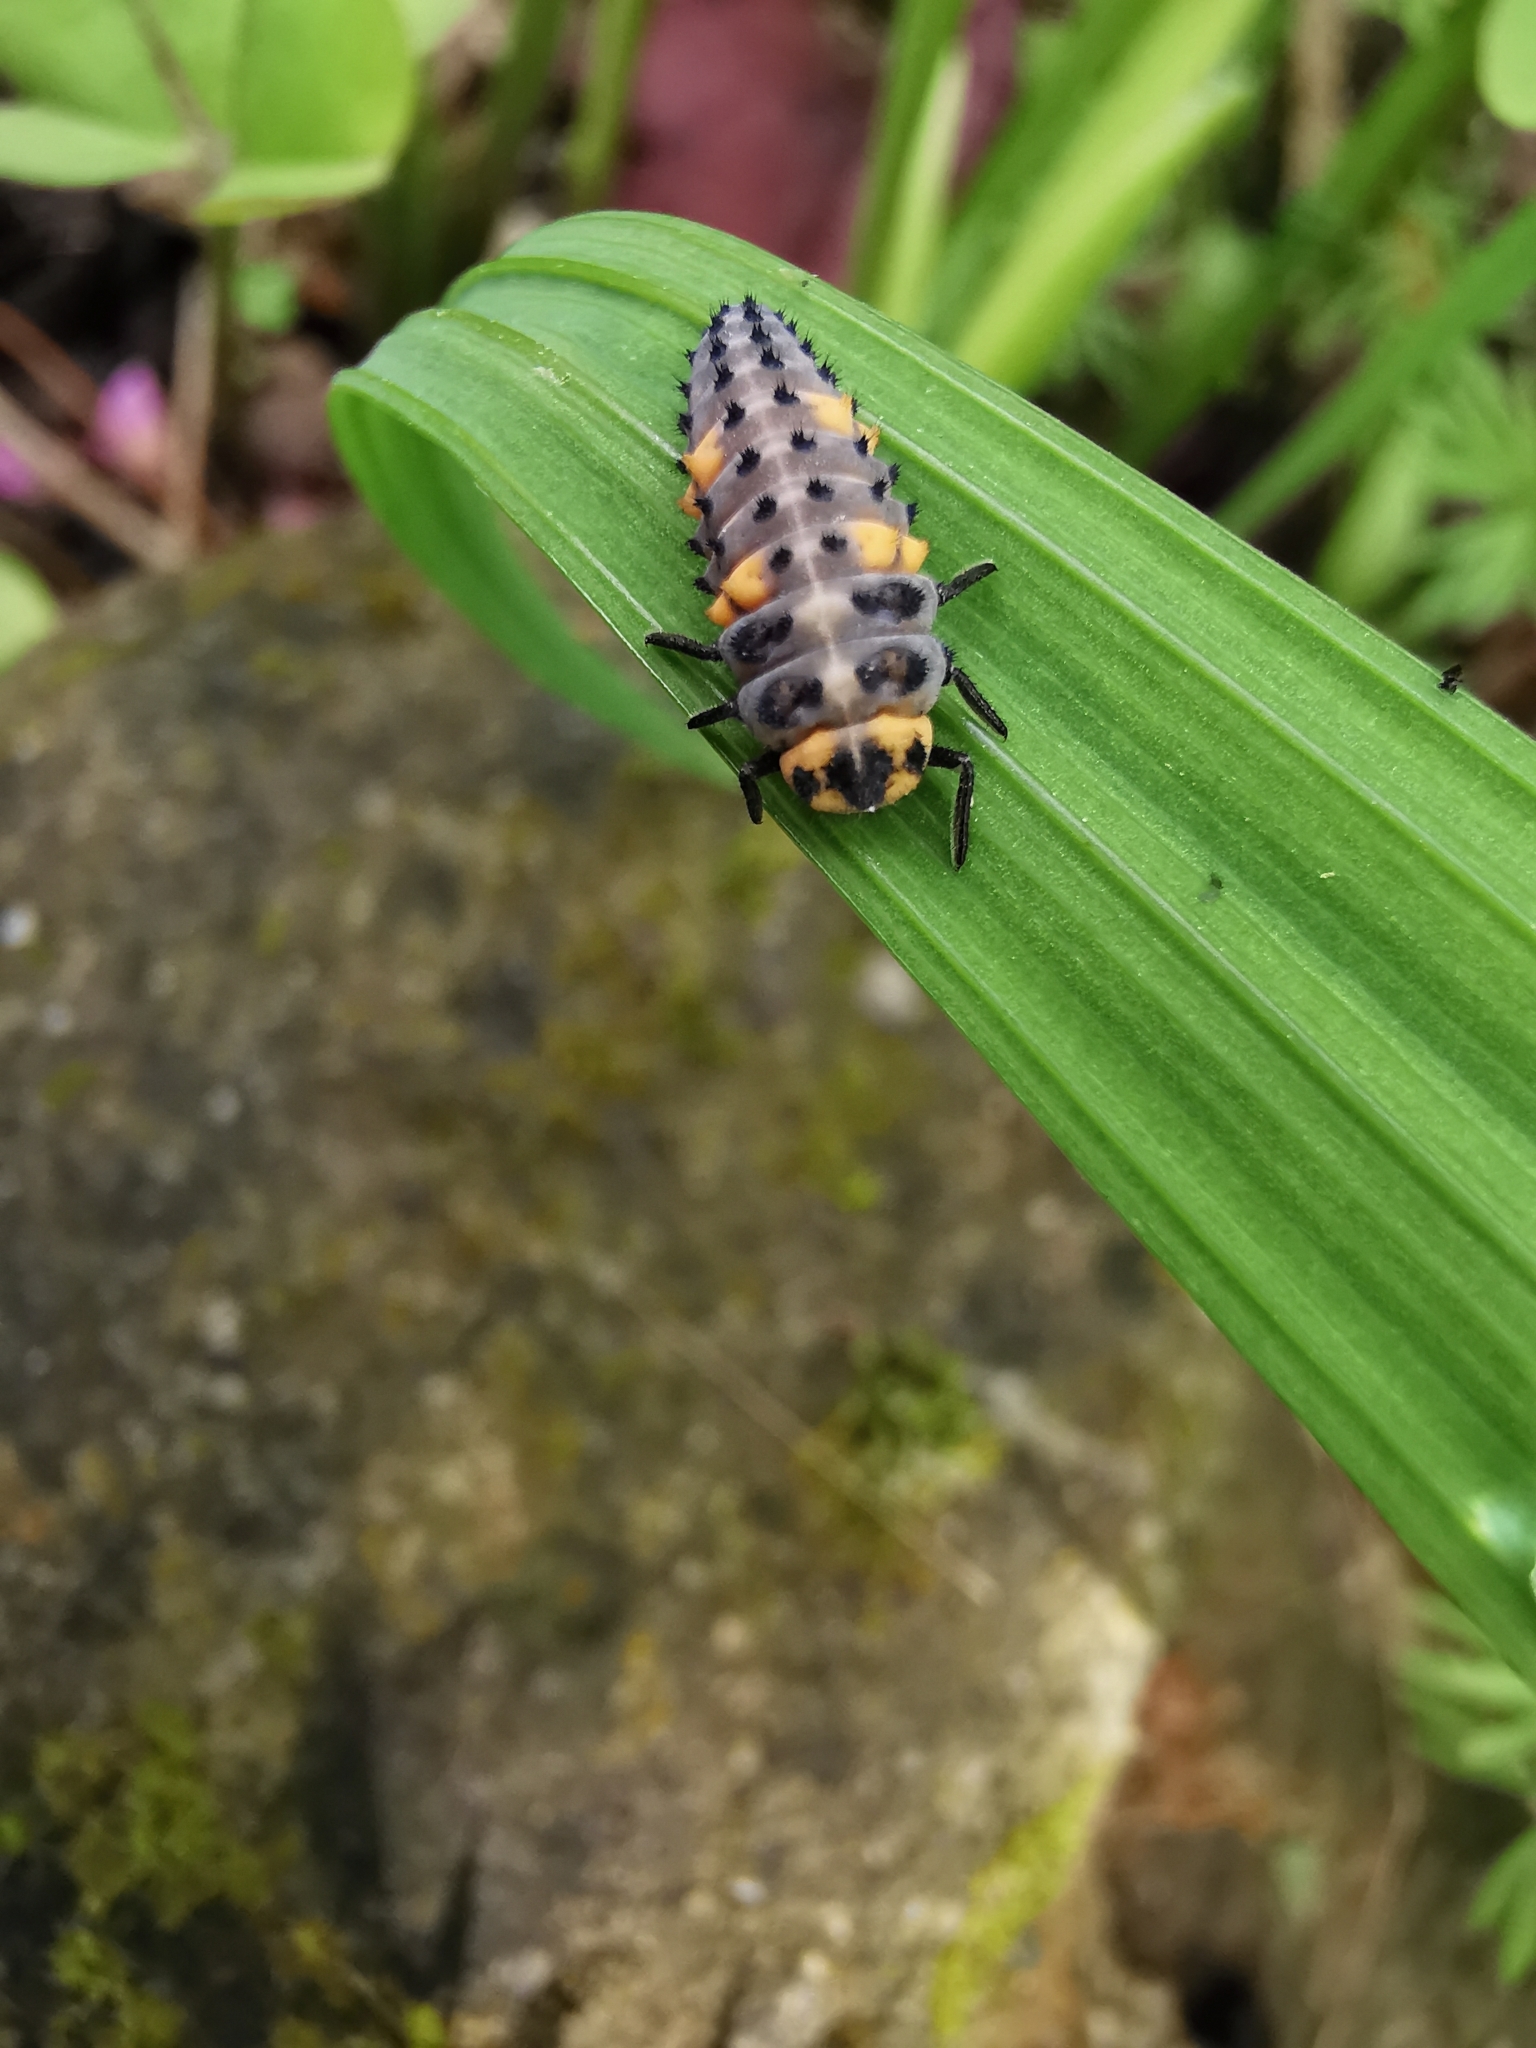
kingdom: Animalia
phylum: Arthropoda
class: Insecta
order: Coleoptera
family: Coccinellidae
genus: Coccinella
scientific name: Coccinella septempunctata
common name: Sevenspotted lady beetle
